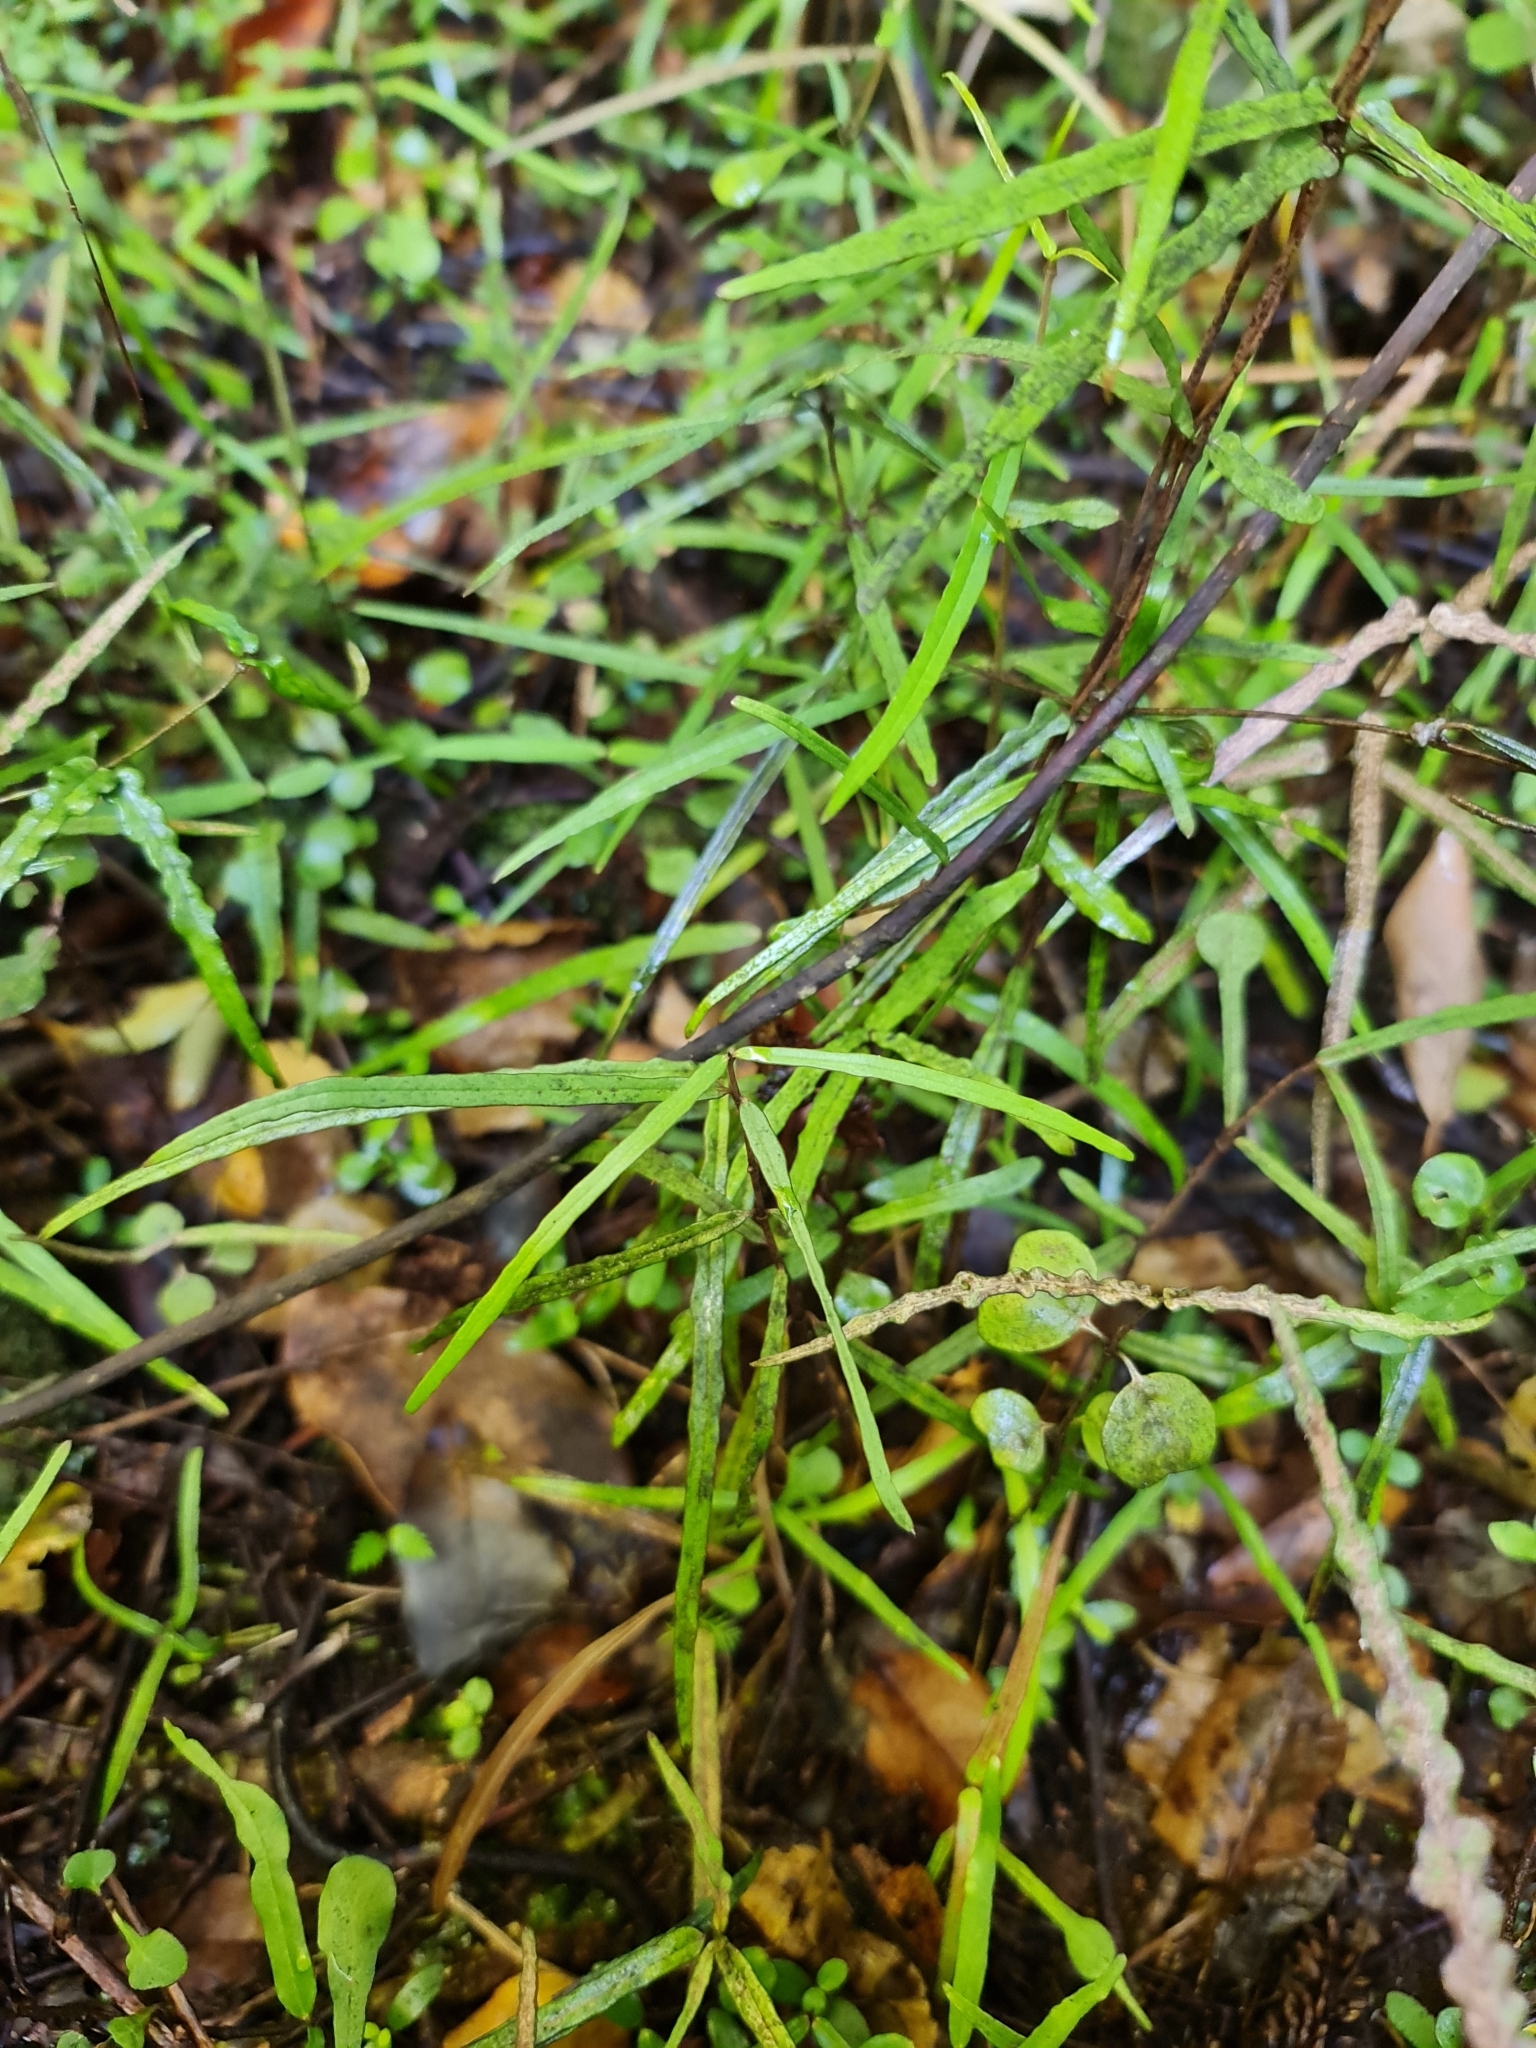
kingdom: Plantae
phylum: Tracheophyta
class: Magnoliopsida
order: Gentianales
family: Apocynaceae
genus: Parsonsia
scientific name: Parsonsia heterophylla
